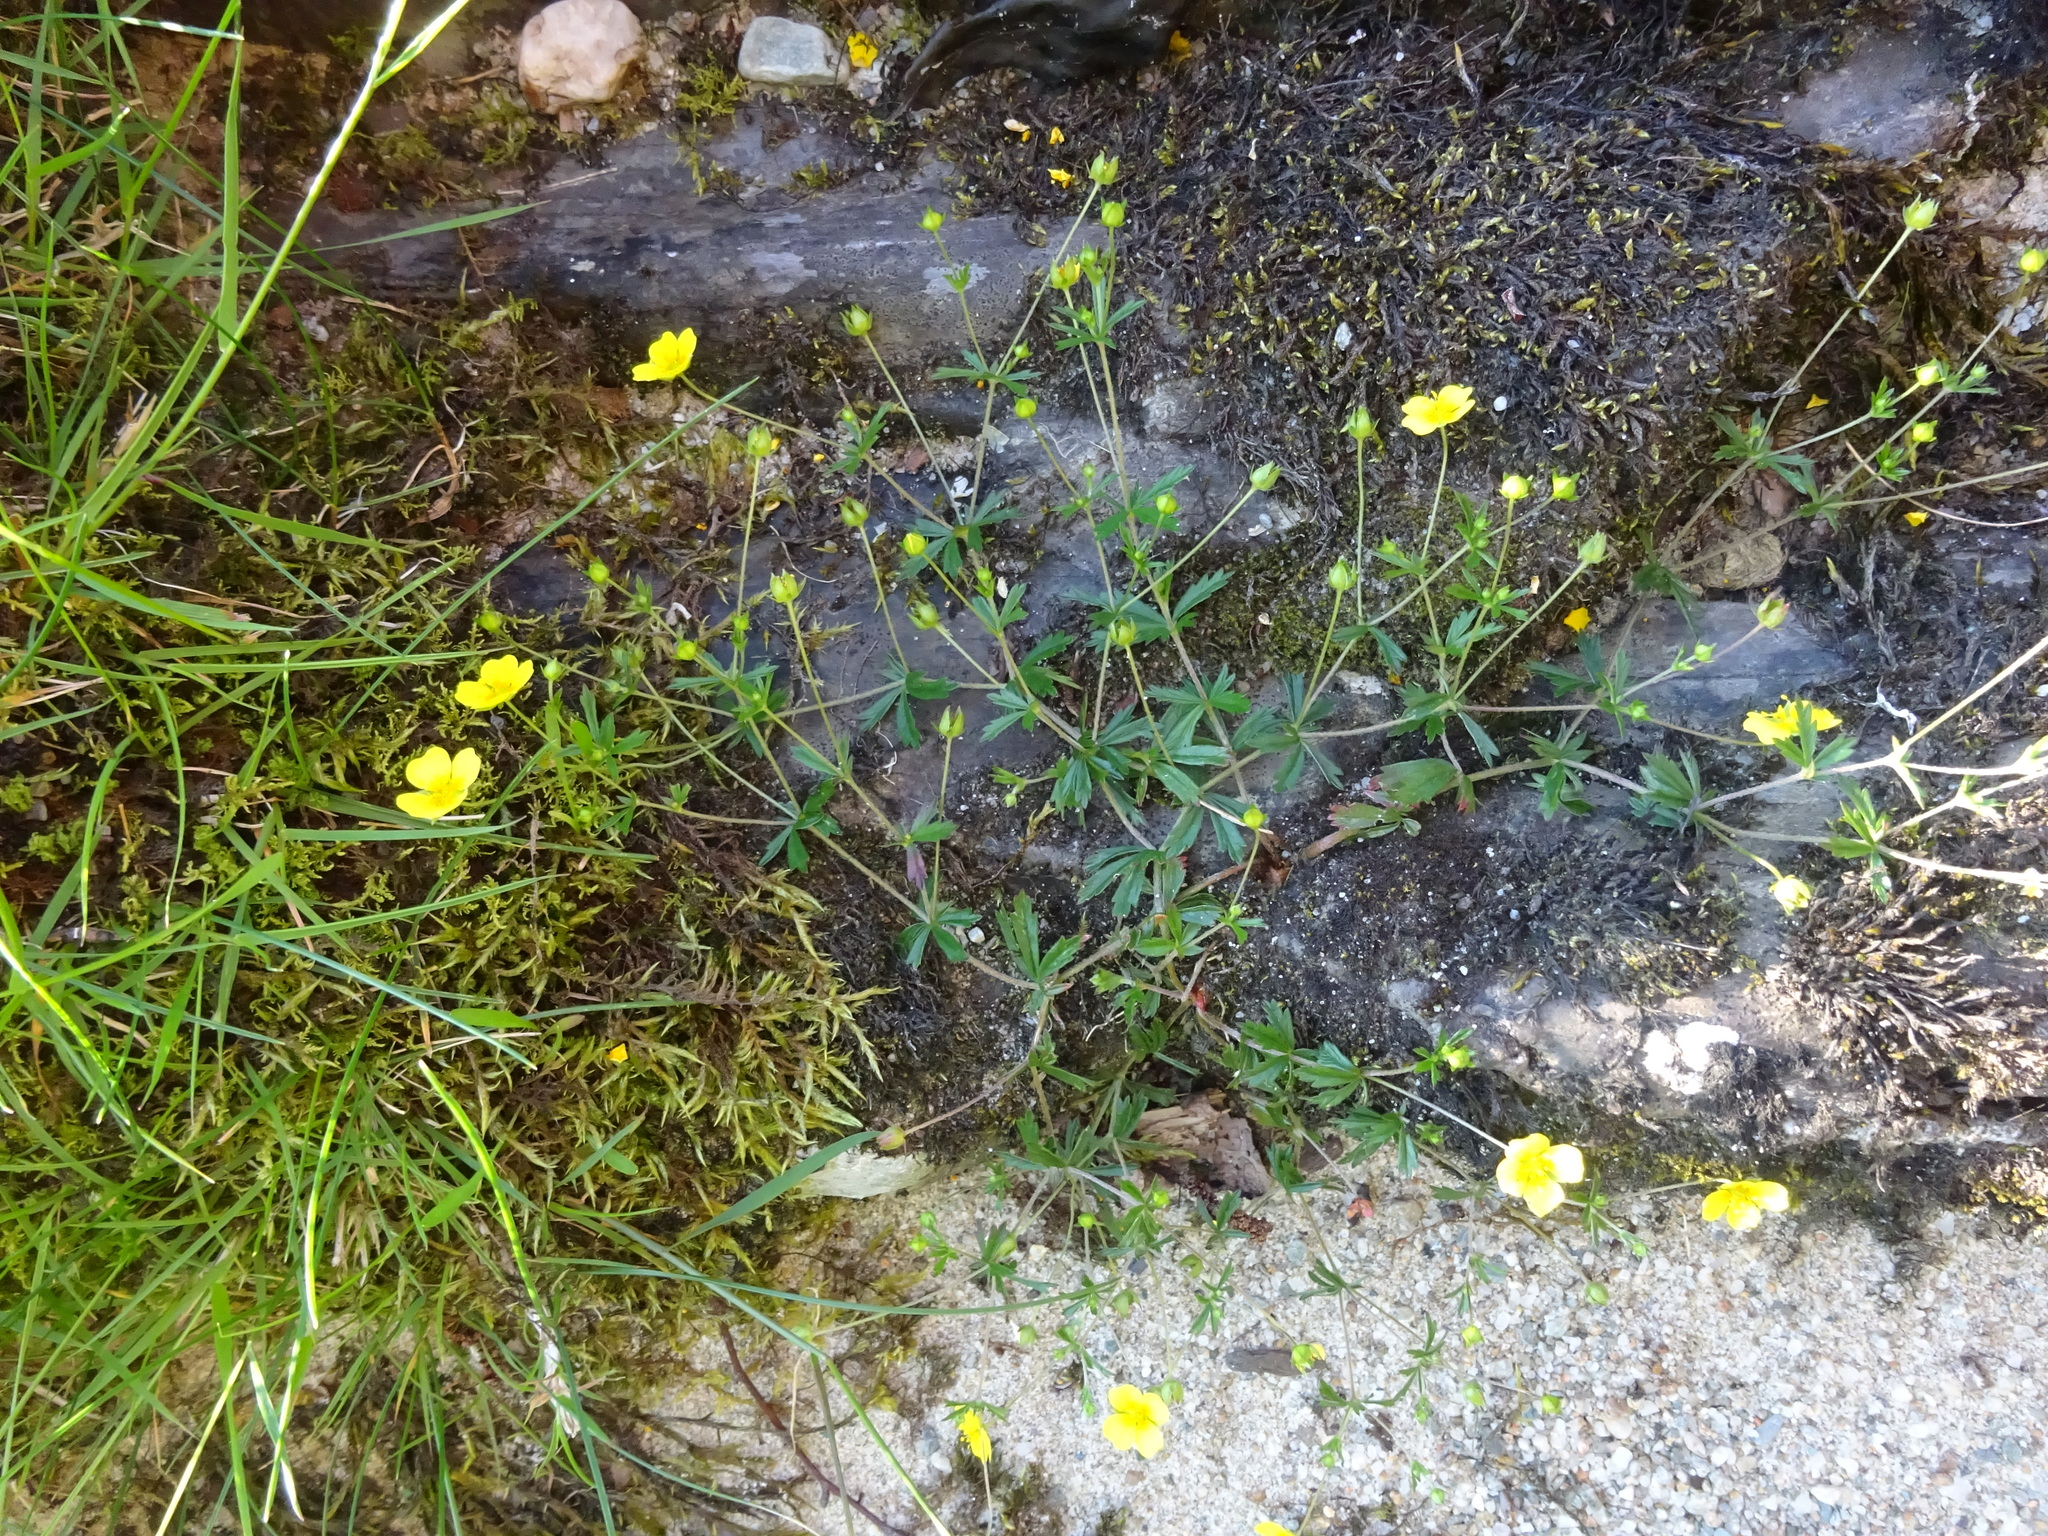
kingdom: Plantae
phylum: Tracheophyta
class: Magnoliopsida
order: Rosales
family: Rosaceae
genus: Potentilla
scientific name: Potentilla erecta
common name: Tormentil
